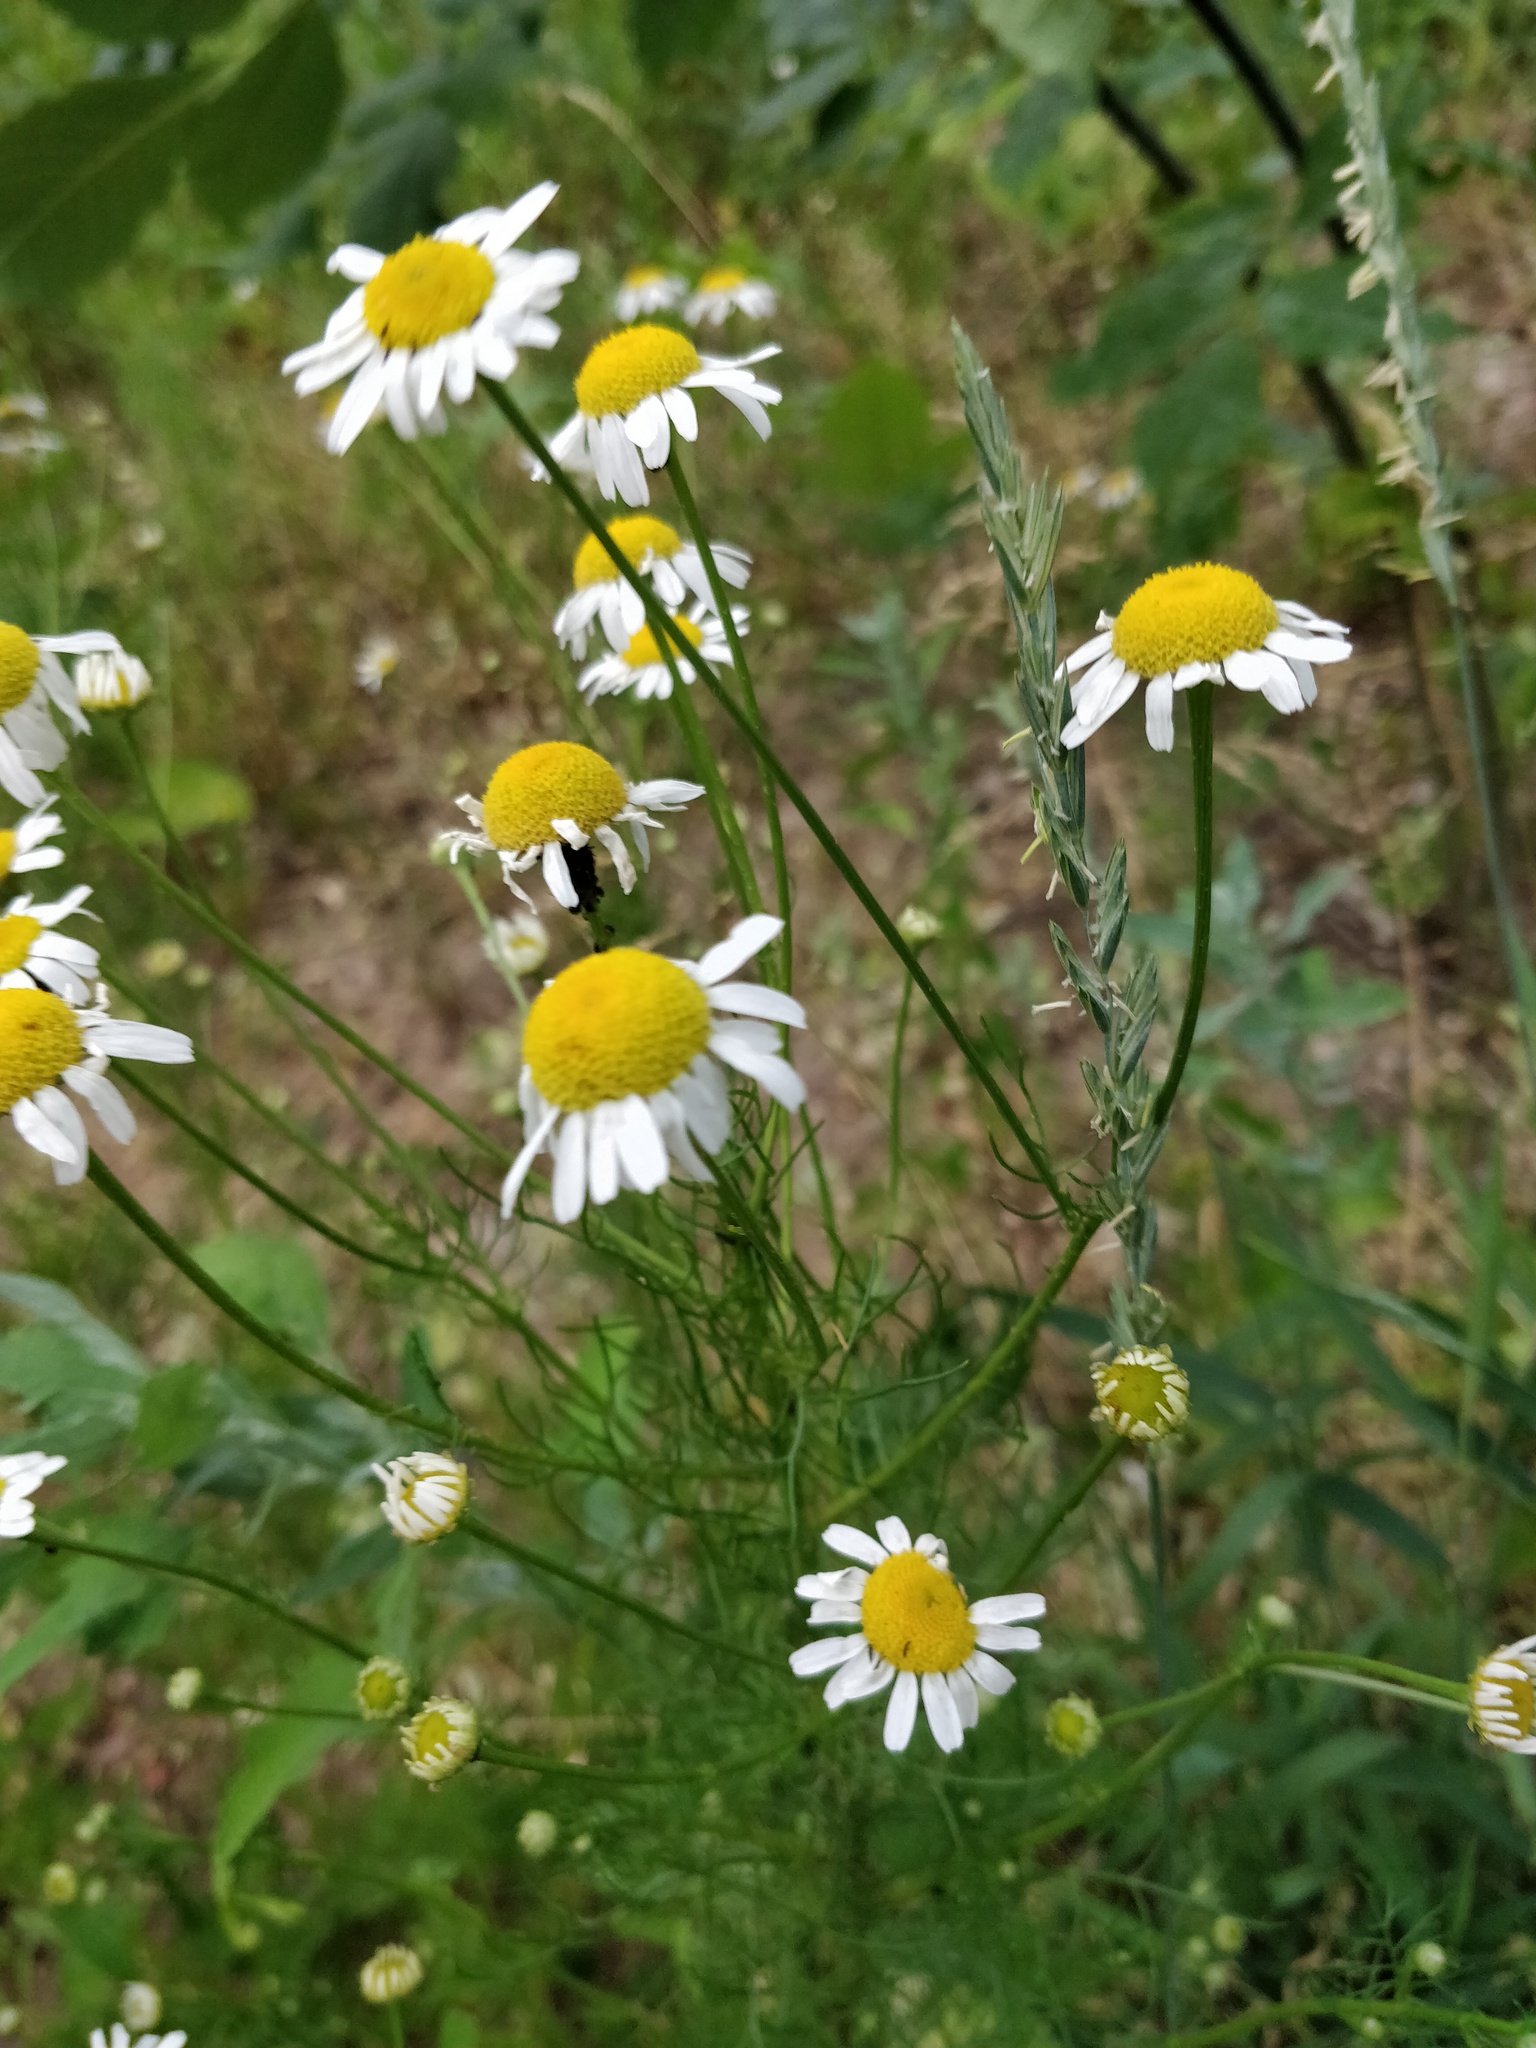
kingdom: Plantae
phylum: Tracheophyta
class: Magnoliopsida
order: Asterales
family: Asteraceae
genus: Tripleurospermum
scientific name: Tripleurospermum inodorum
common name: Scentless mayweed
